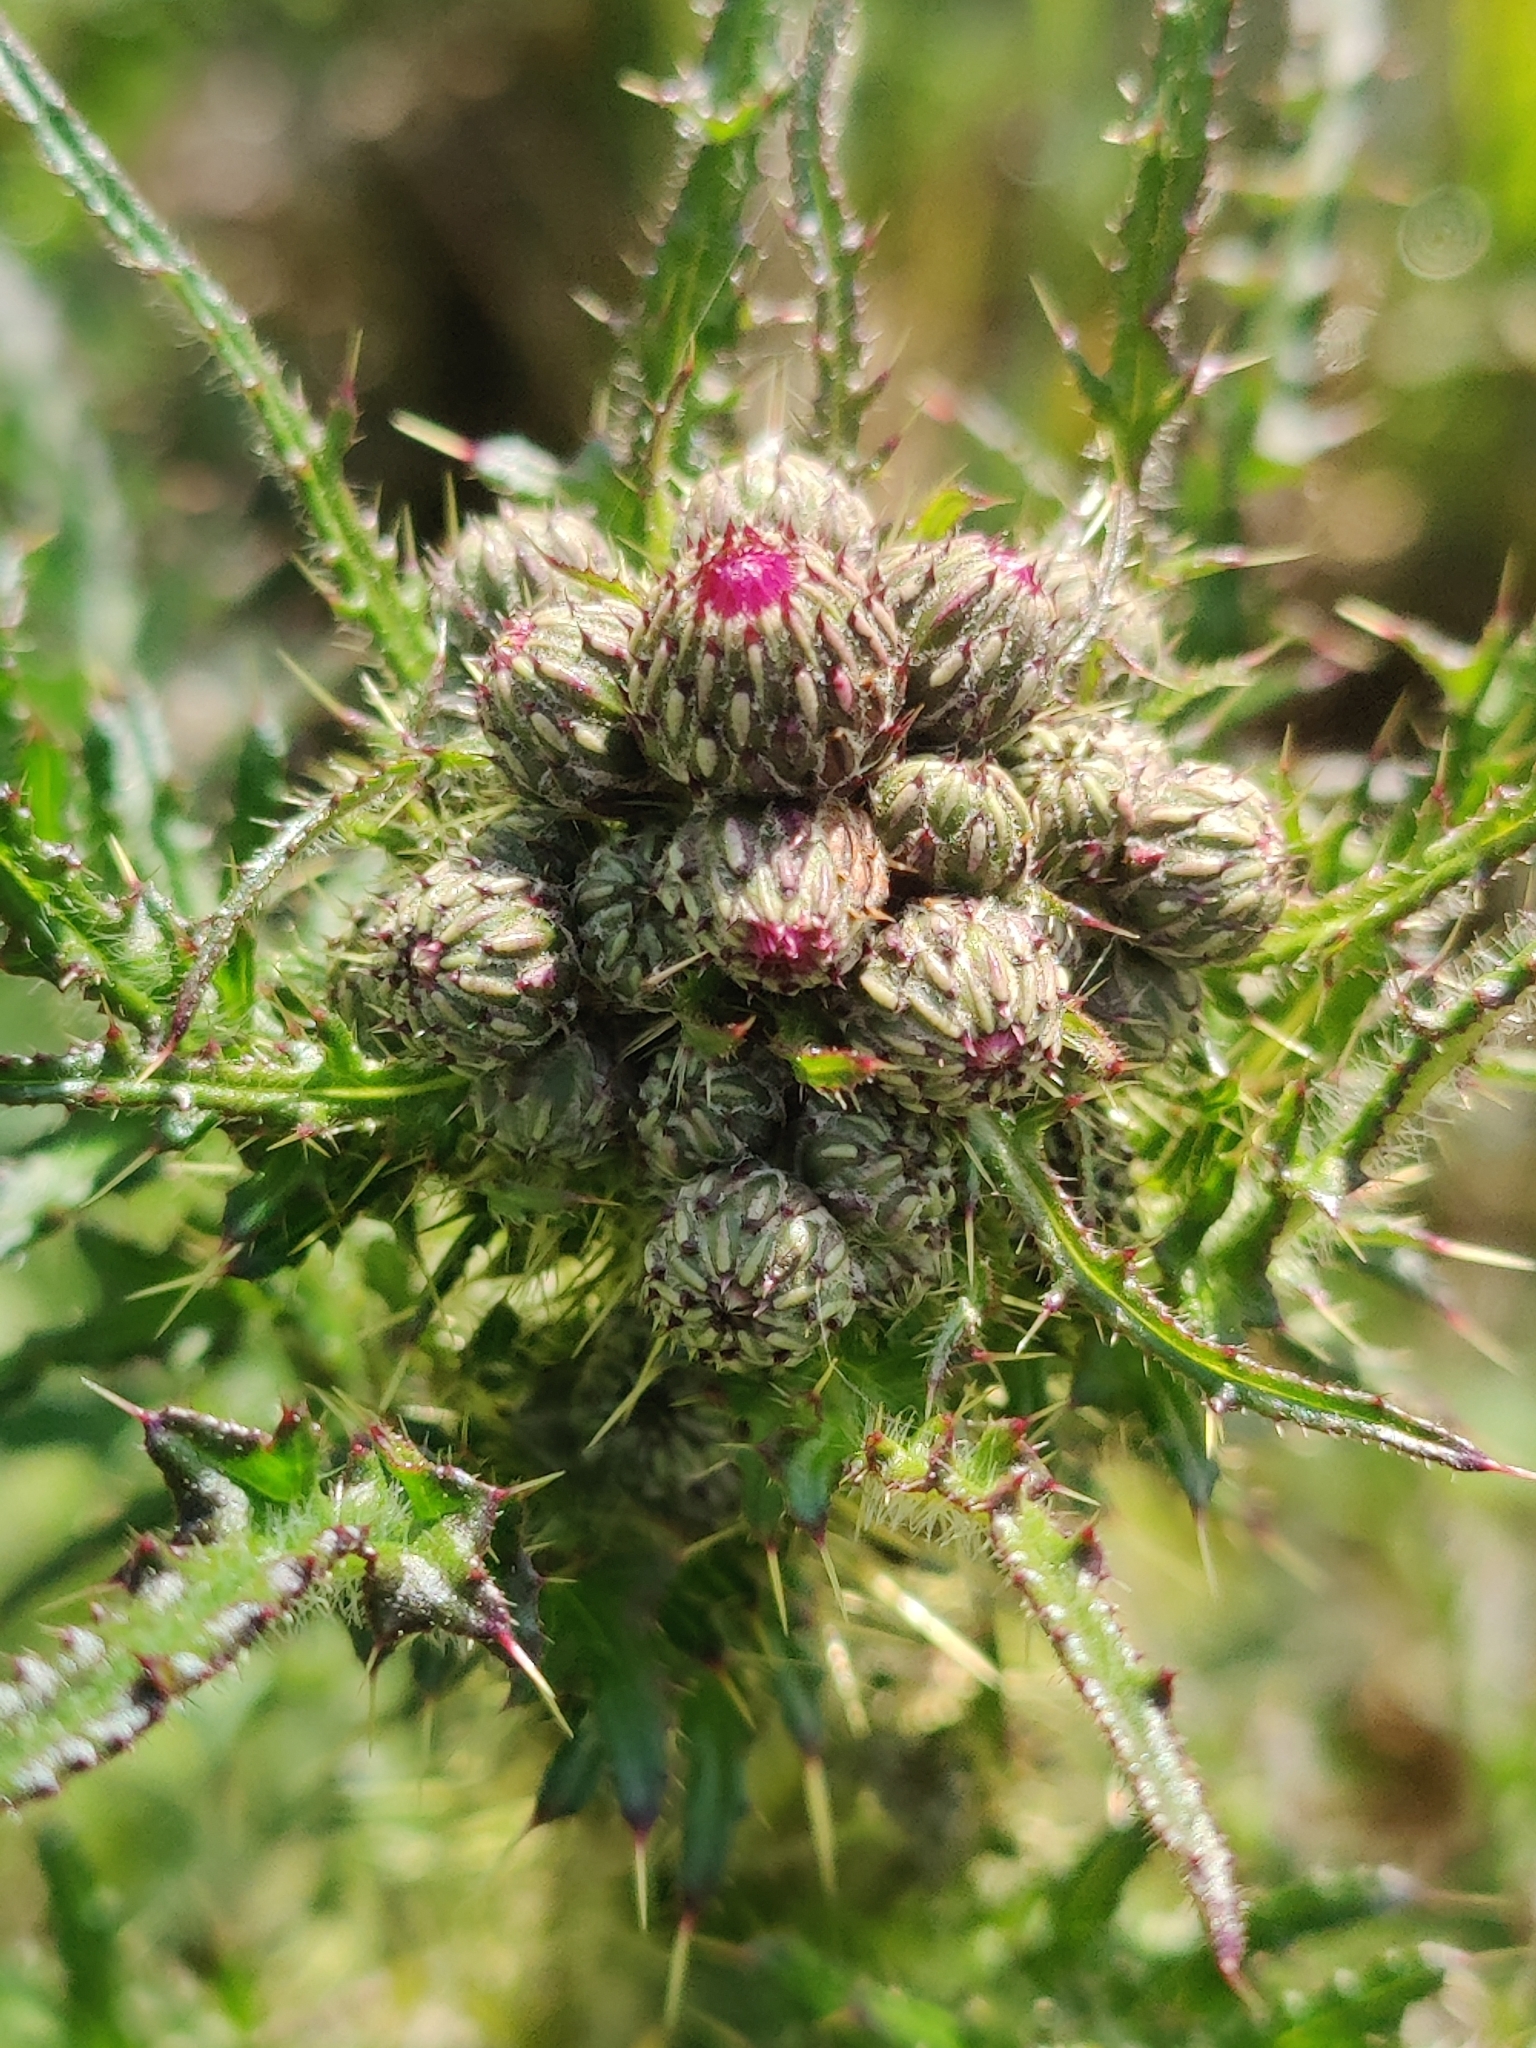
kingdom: Plantae
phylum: Tracheophyta
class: Magnoliopsida
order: Asterales
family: Asteraceae
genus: Cirsium
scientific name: Cirsium palustre
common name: Marsh thistle
